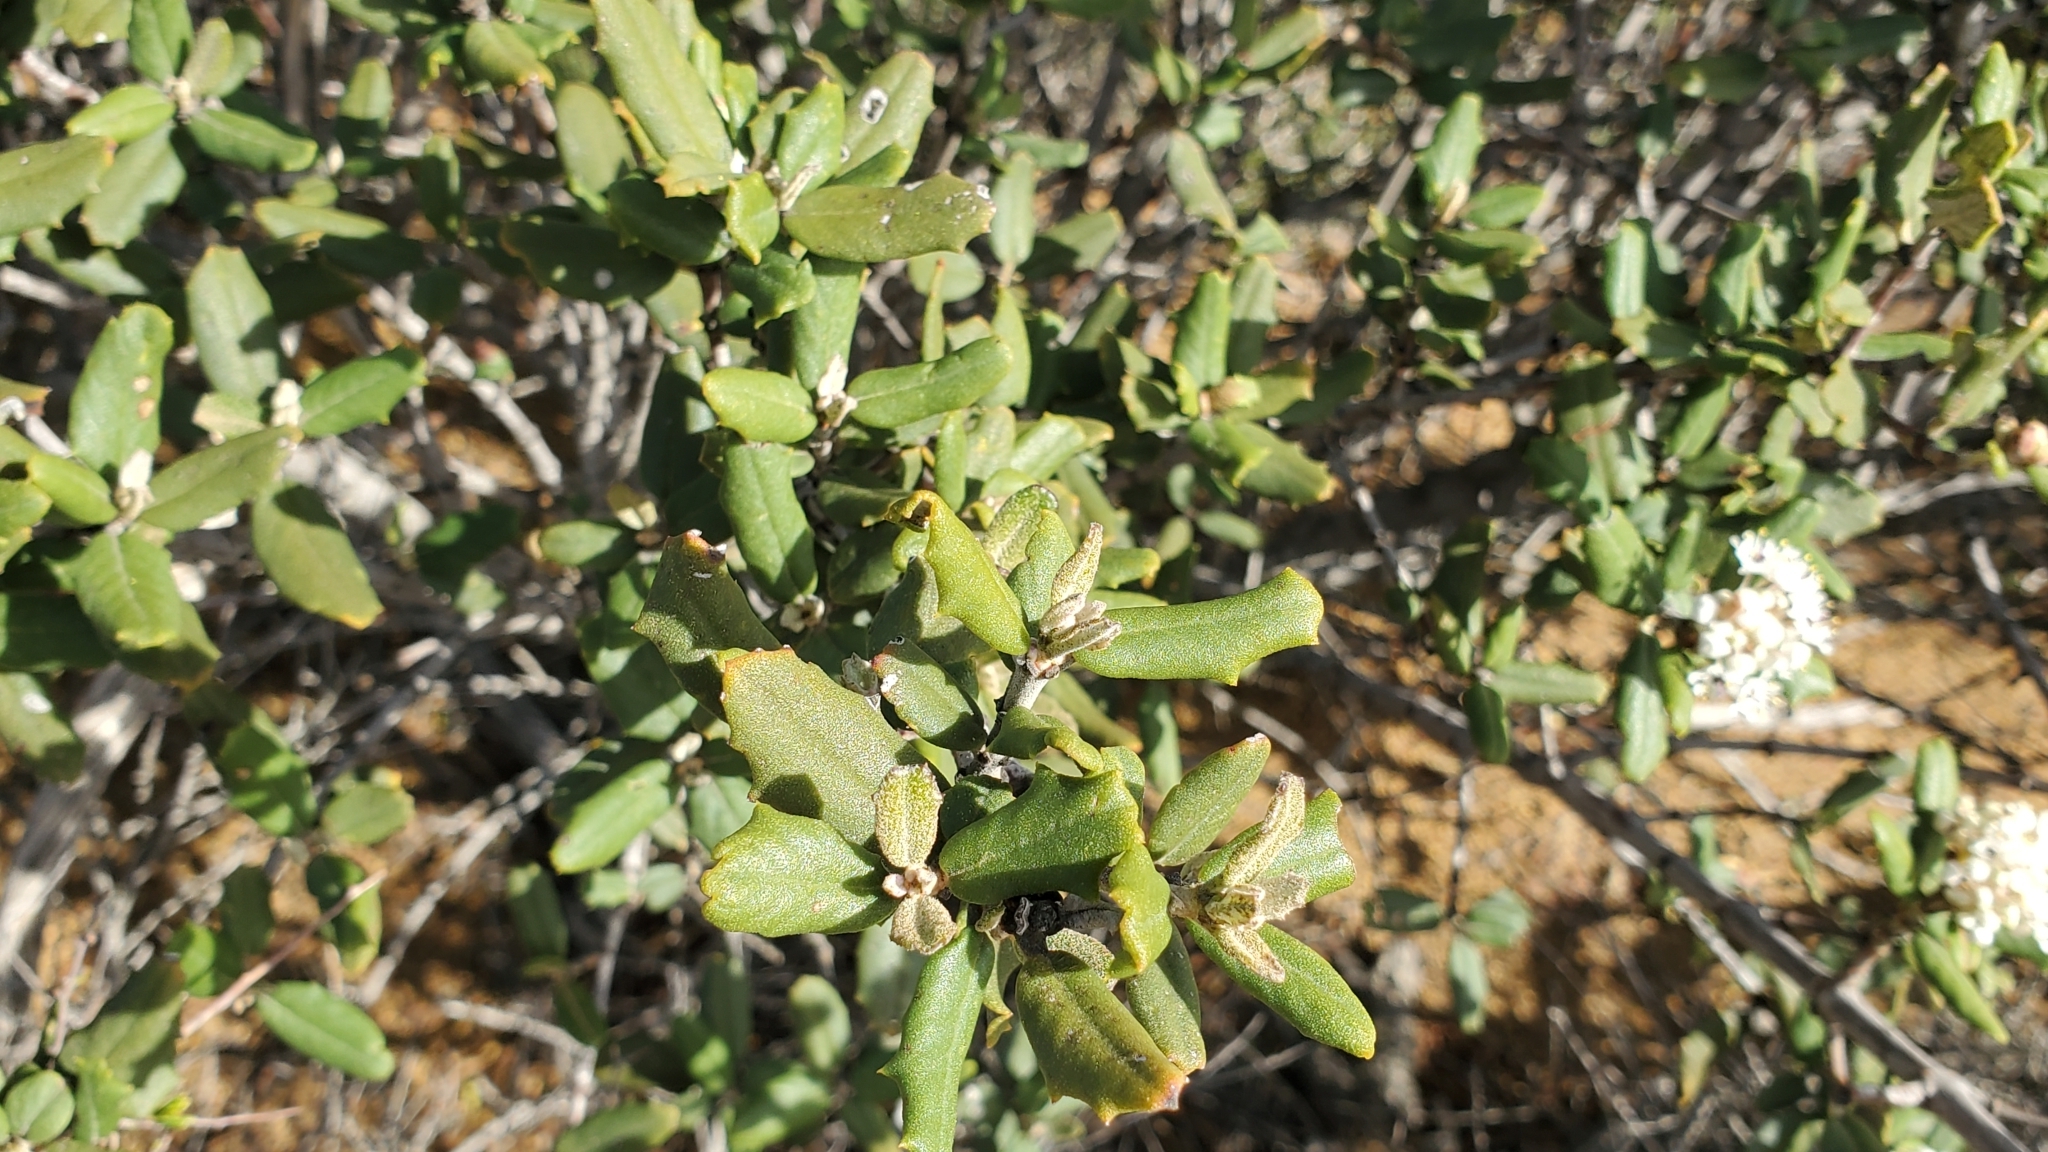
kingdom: Plantae
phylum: Tracheophyta
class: Magnoliopsida
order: Rosales
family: Rhamnaceae
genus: Ceanothus
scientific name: Ceanothus crassifolius
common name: Hoaryleaf ceanothus
